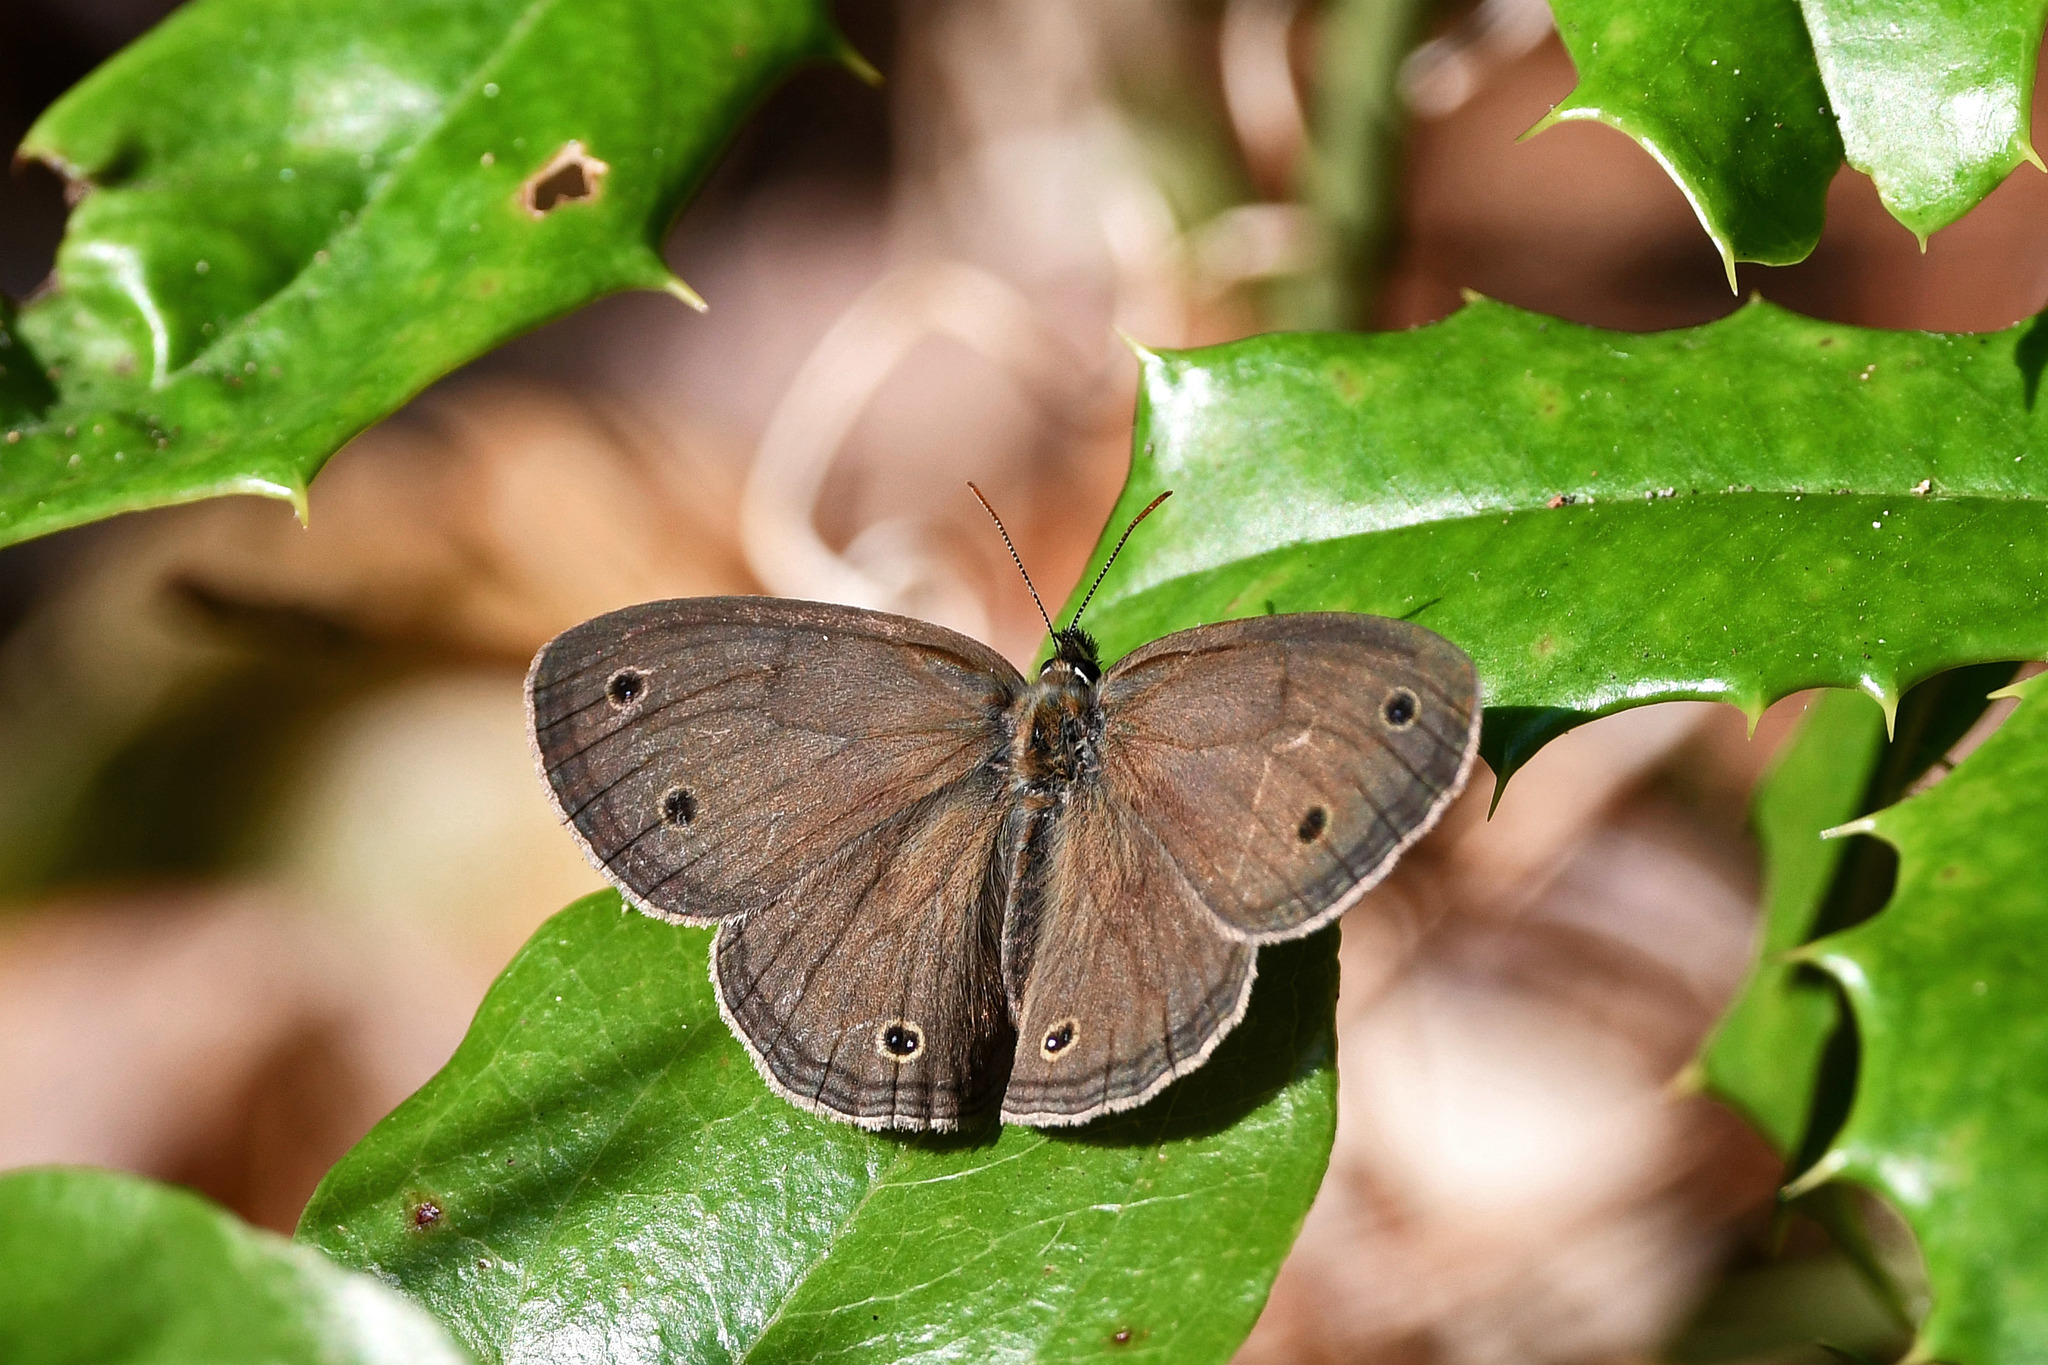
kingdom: Animalia
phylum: Arthropoda
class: Insecta
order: Lepidoptera
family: Nymphalidae
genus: Euptychia
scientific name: Euptychia cymela
